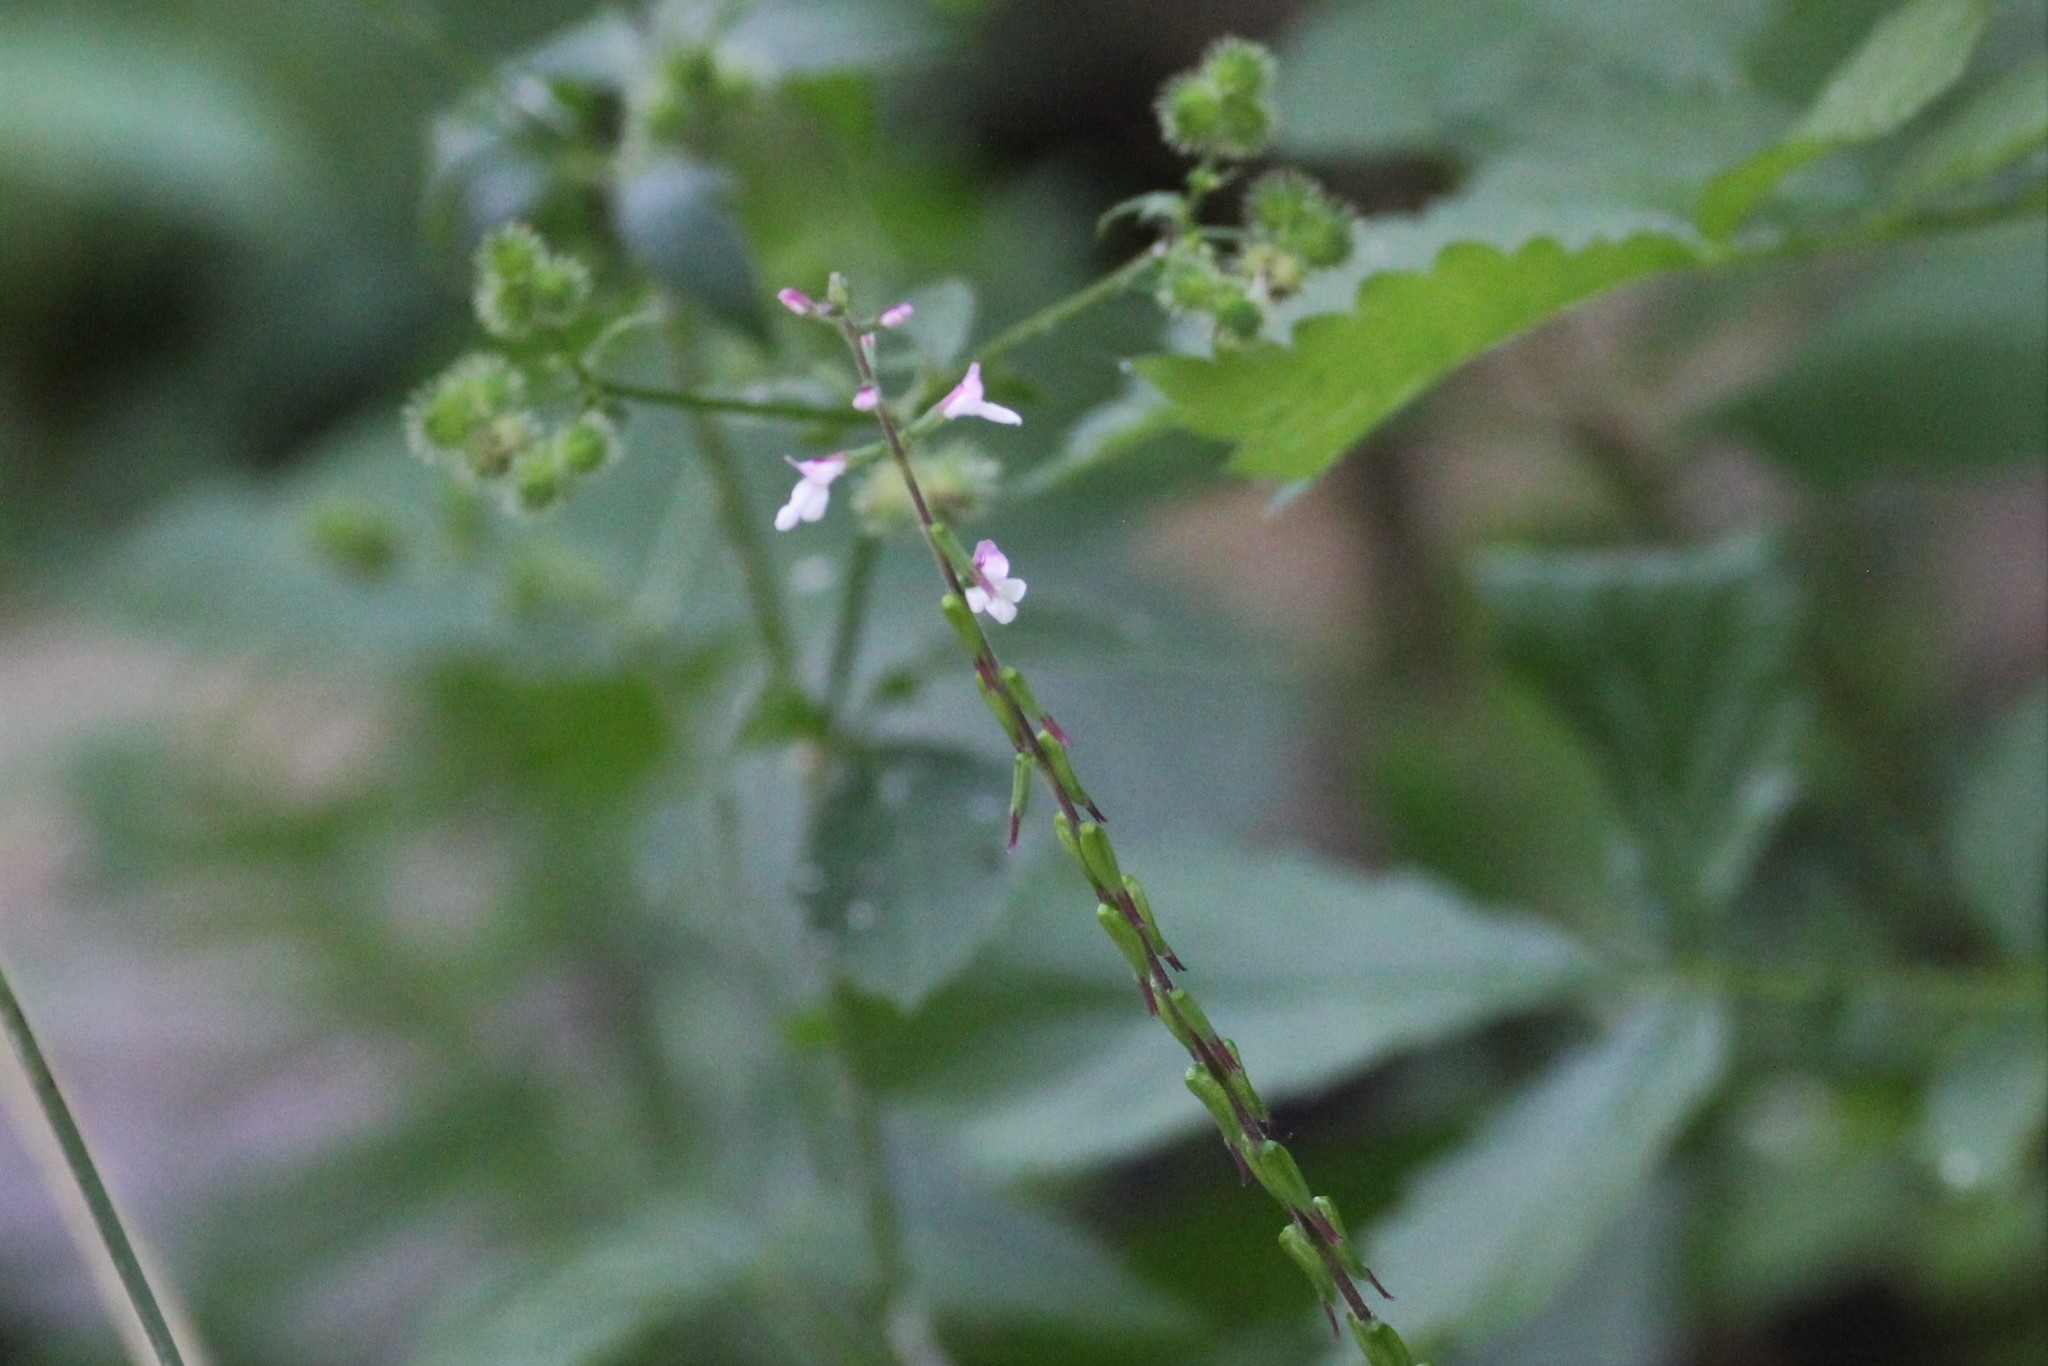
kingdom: Plantae
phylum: Tracheophyta
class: Magnoliopsida
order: Lamiales
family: Phrymaceae
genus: Phryma
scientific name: Phryma leptostachya
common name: American lopseed
